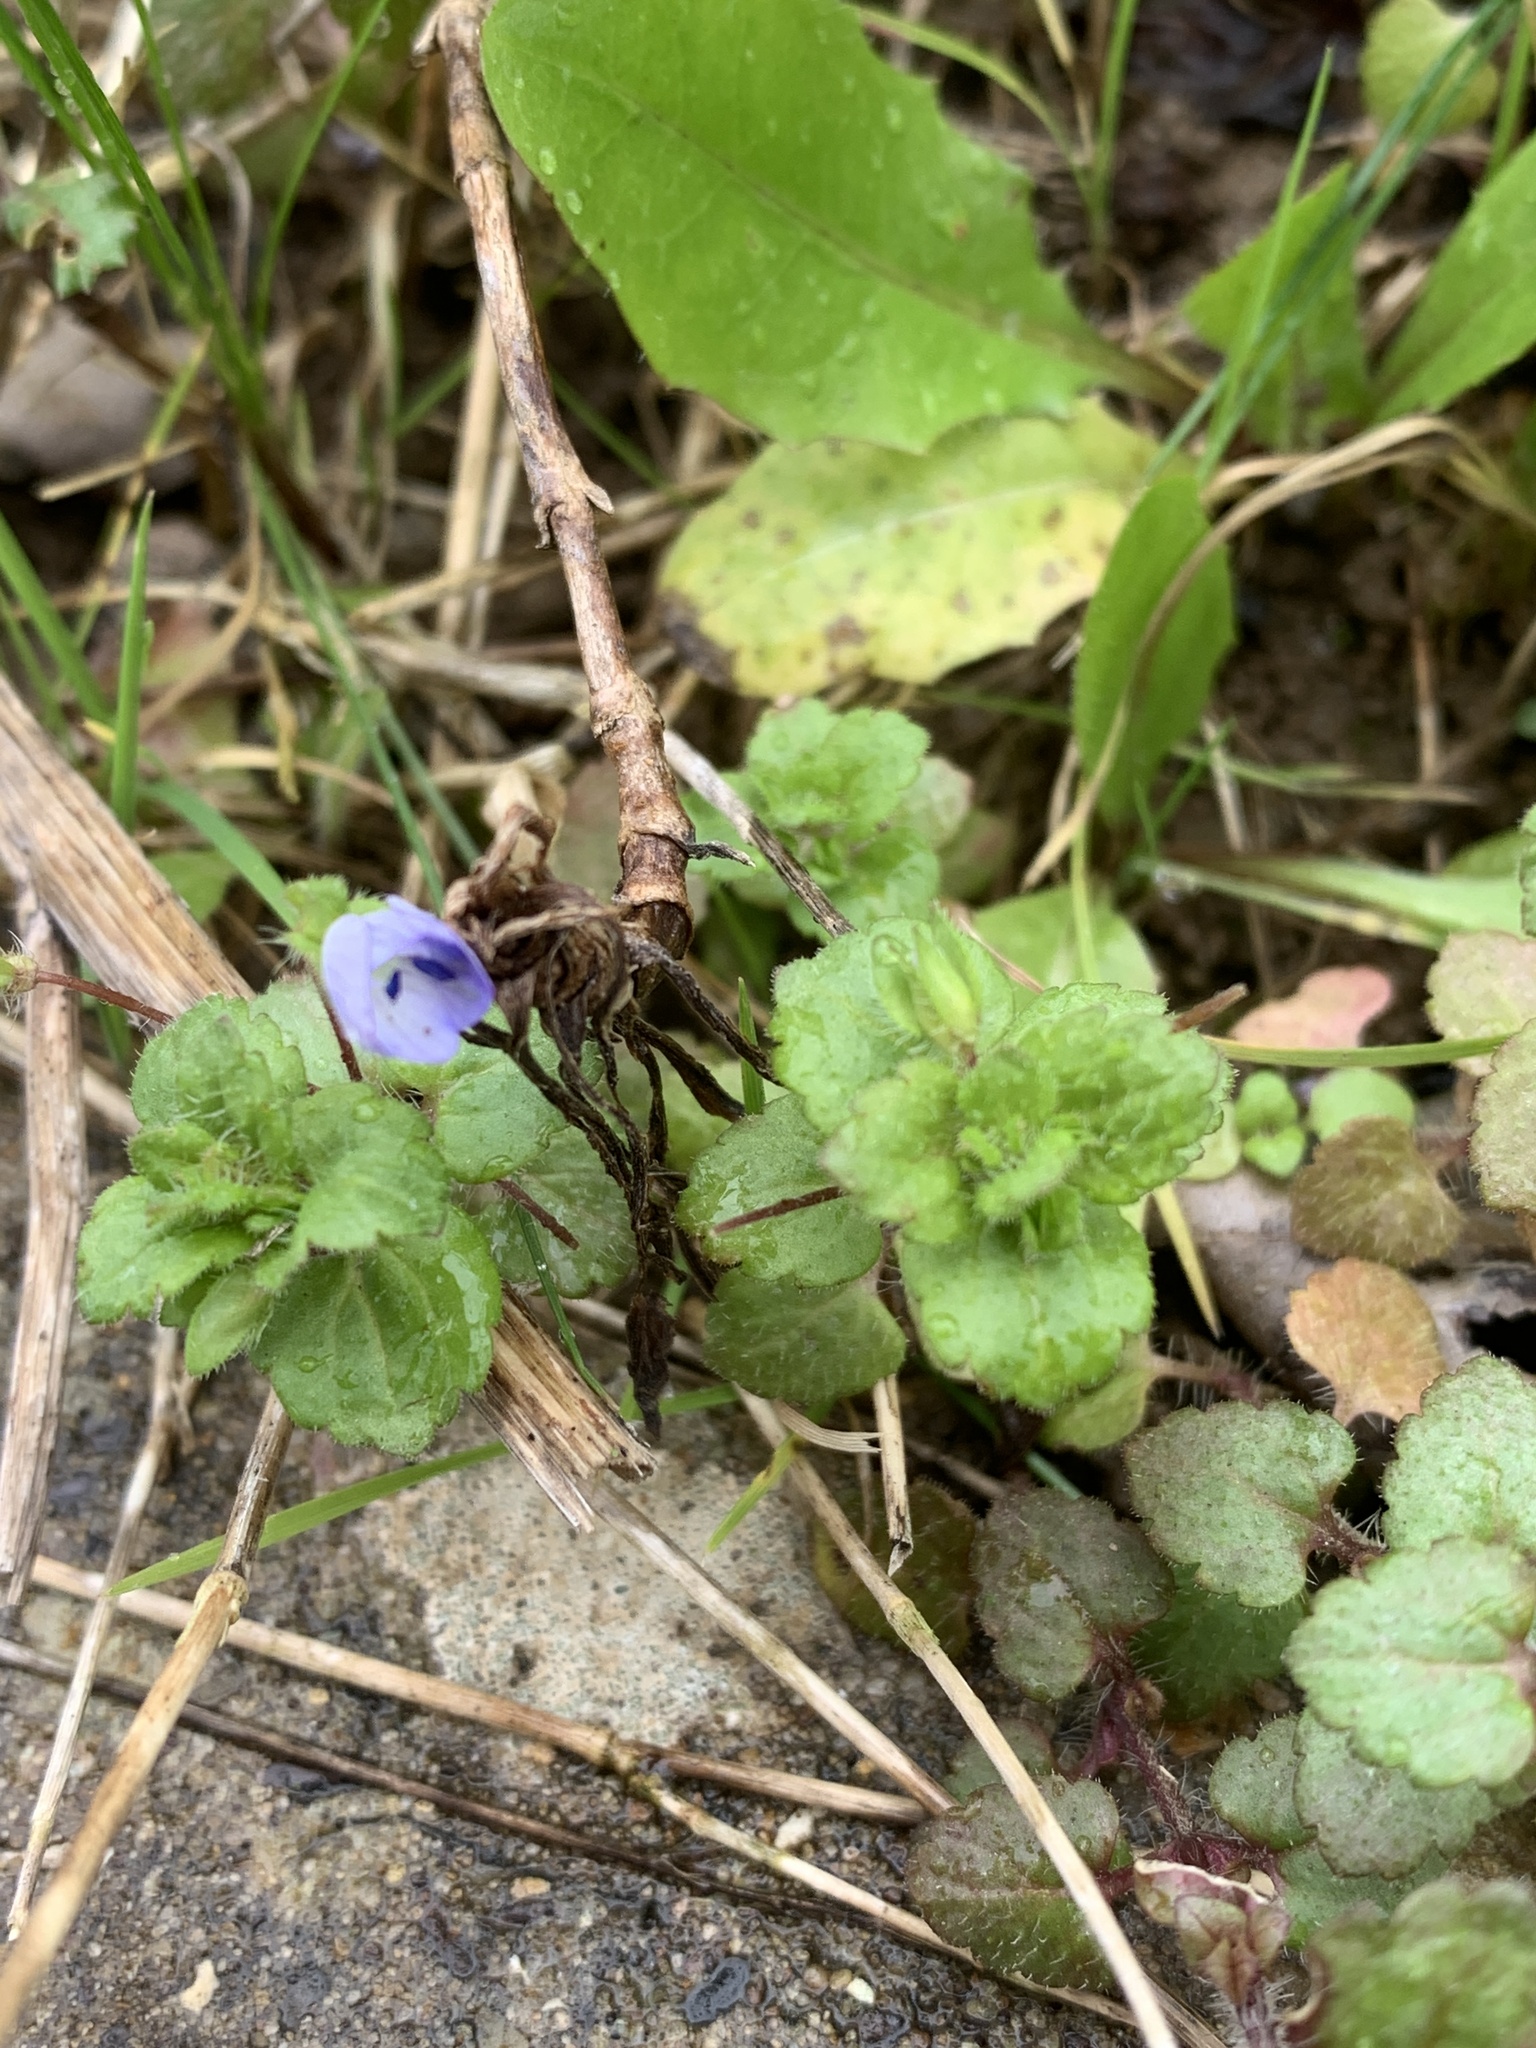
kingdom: Plantae
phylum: Tracheophyta
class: Magnoliopsida
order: Lamiales
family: Plantaginaceae
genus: Veronica
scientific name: Veronica persica
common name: Common field-speedwell
